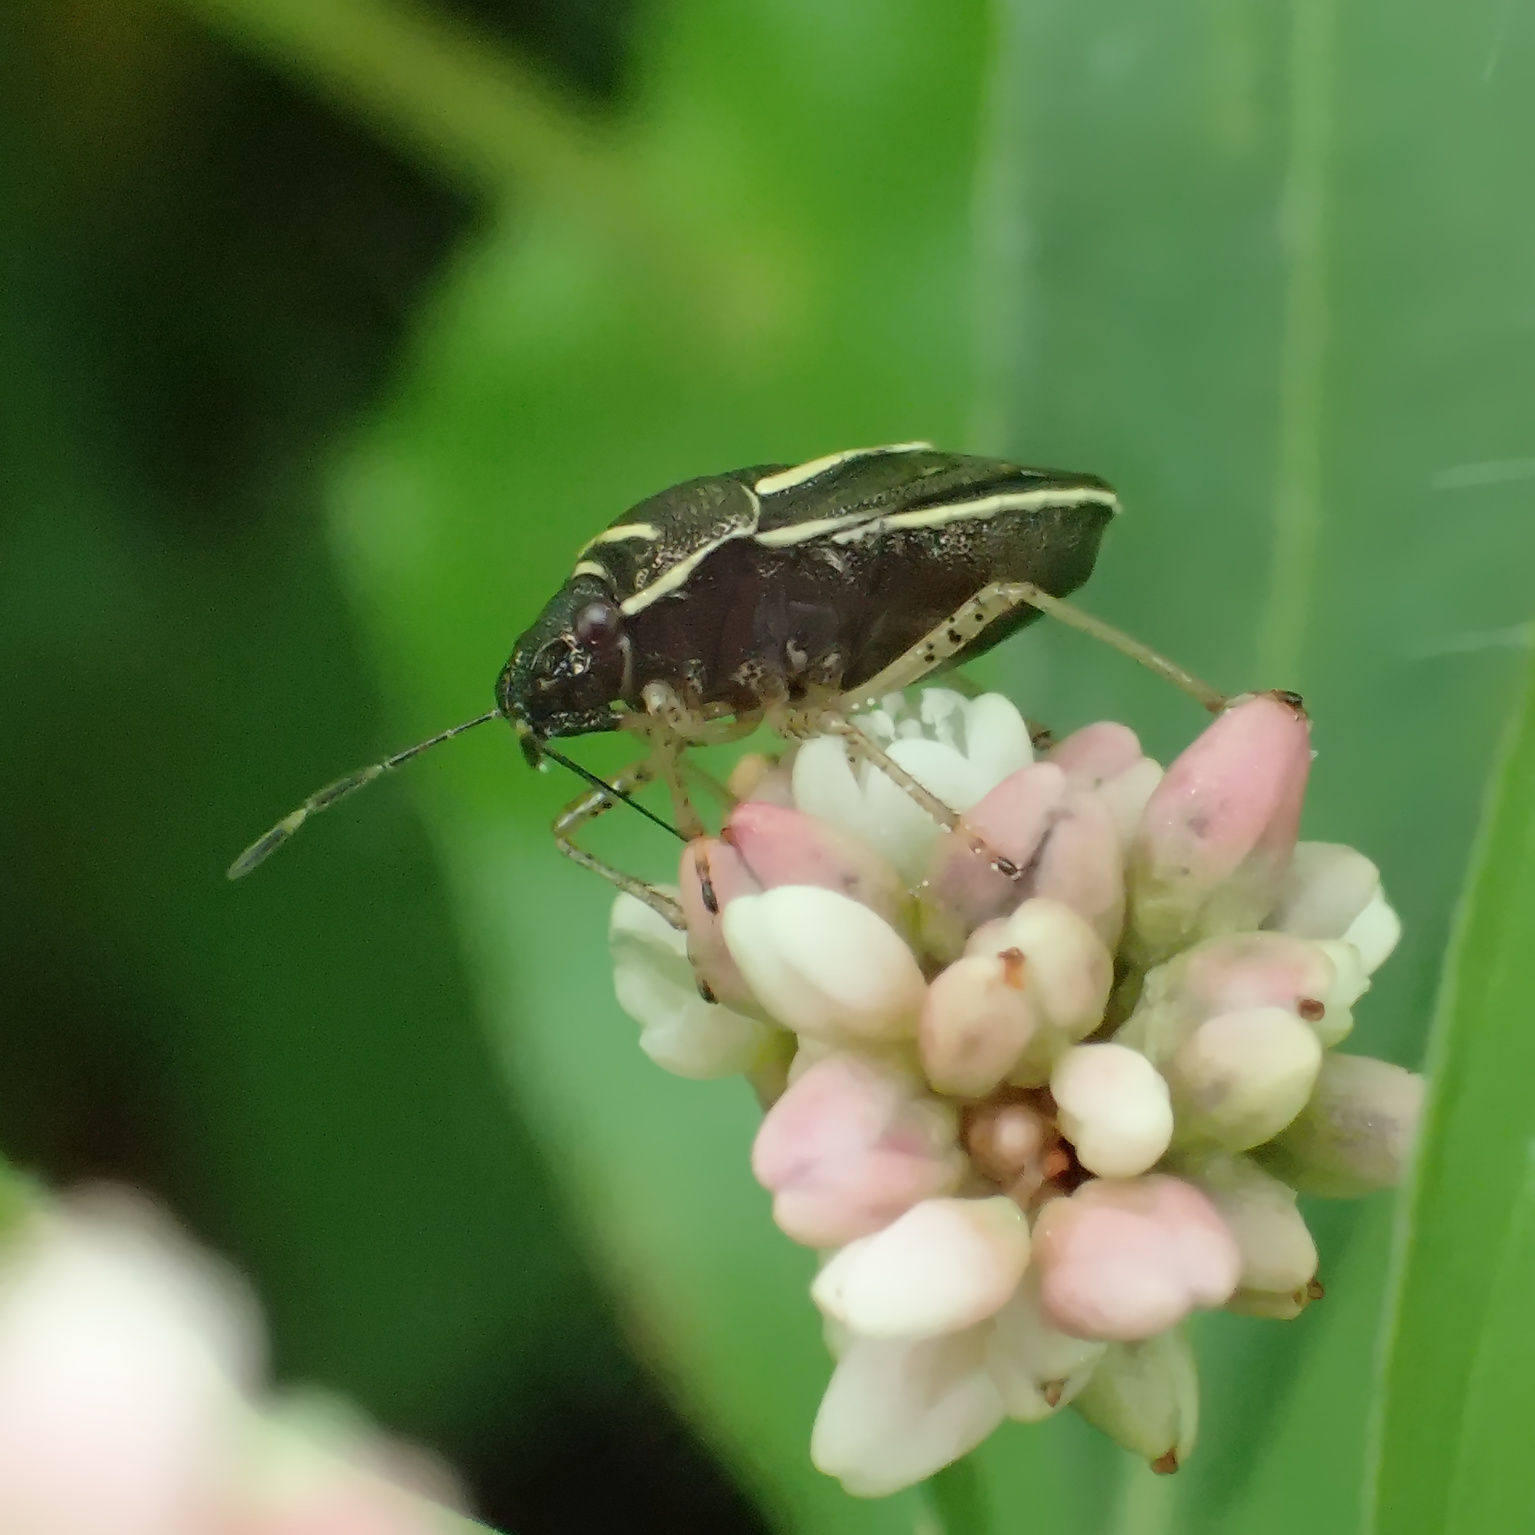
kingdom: Animalia
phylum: Arthropoda
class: Insecta
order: Hemiptera
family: Pentatomidae
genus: Mormidea
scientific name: Mormidea lugens
